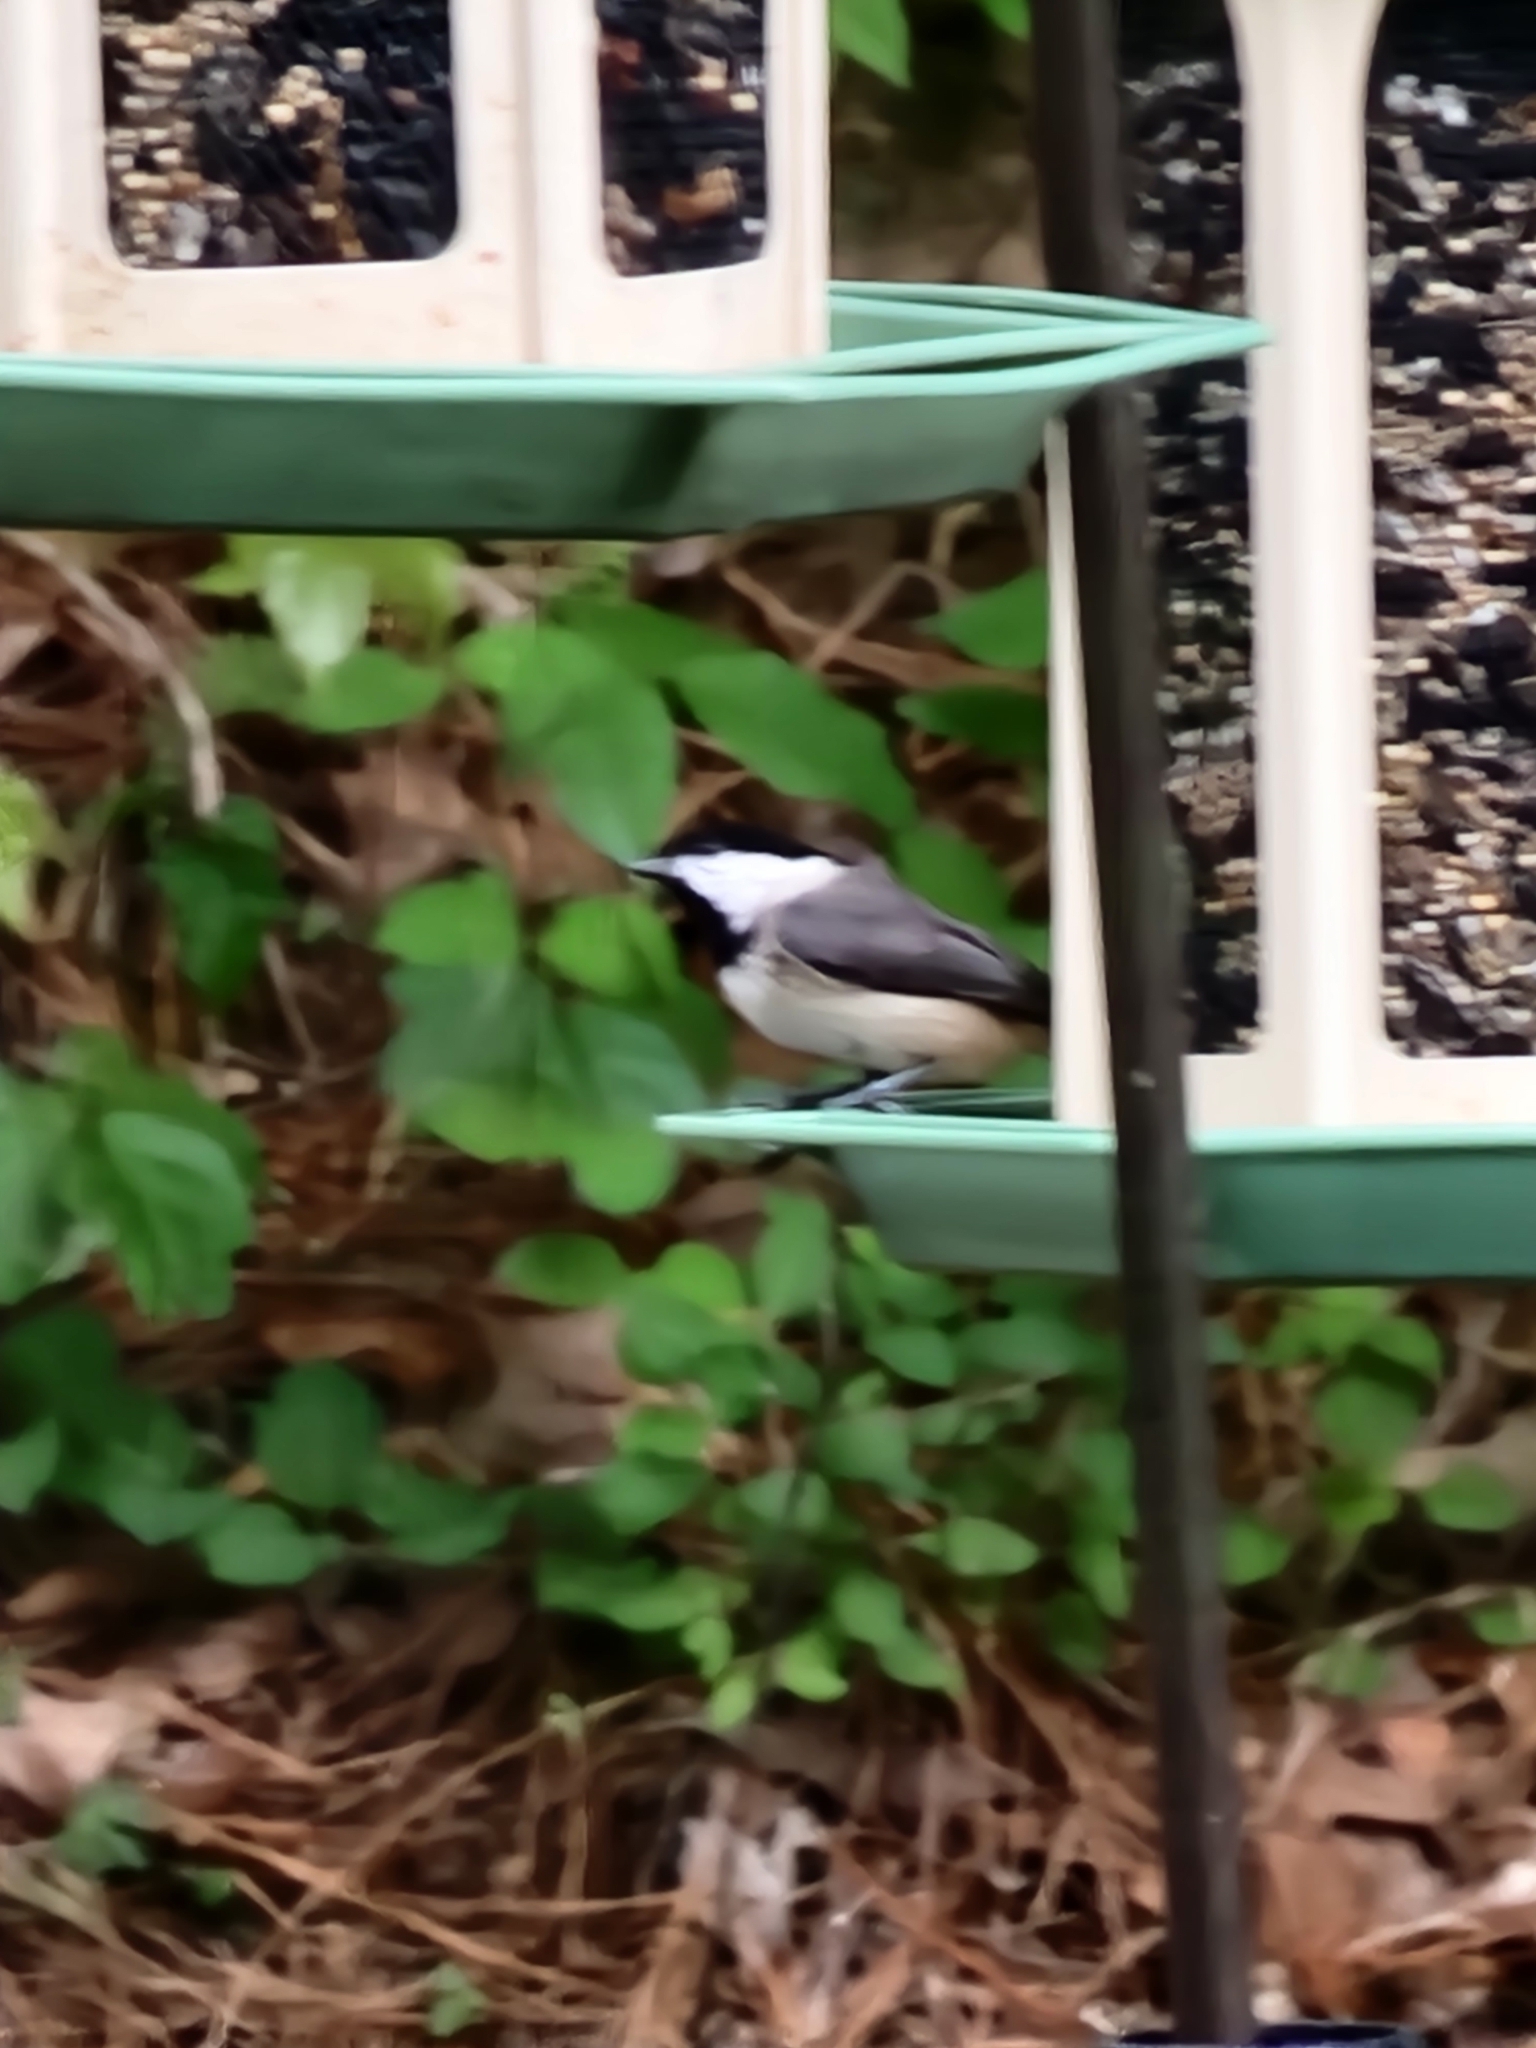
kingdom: Animalia
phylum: Chordata
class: Aves
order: Passeriformes
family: Paridae
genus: Poecile
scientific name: Poecile carolinensis
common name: Carolina chickadee
